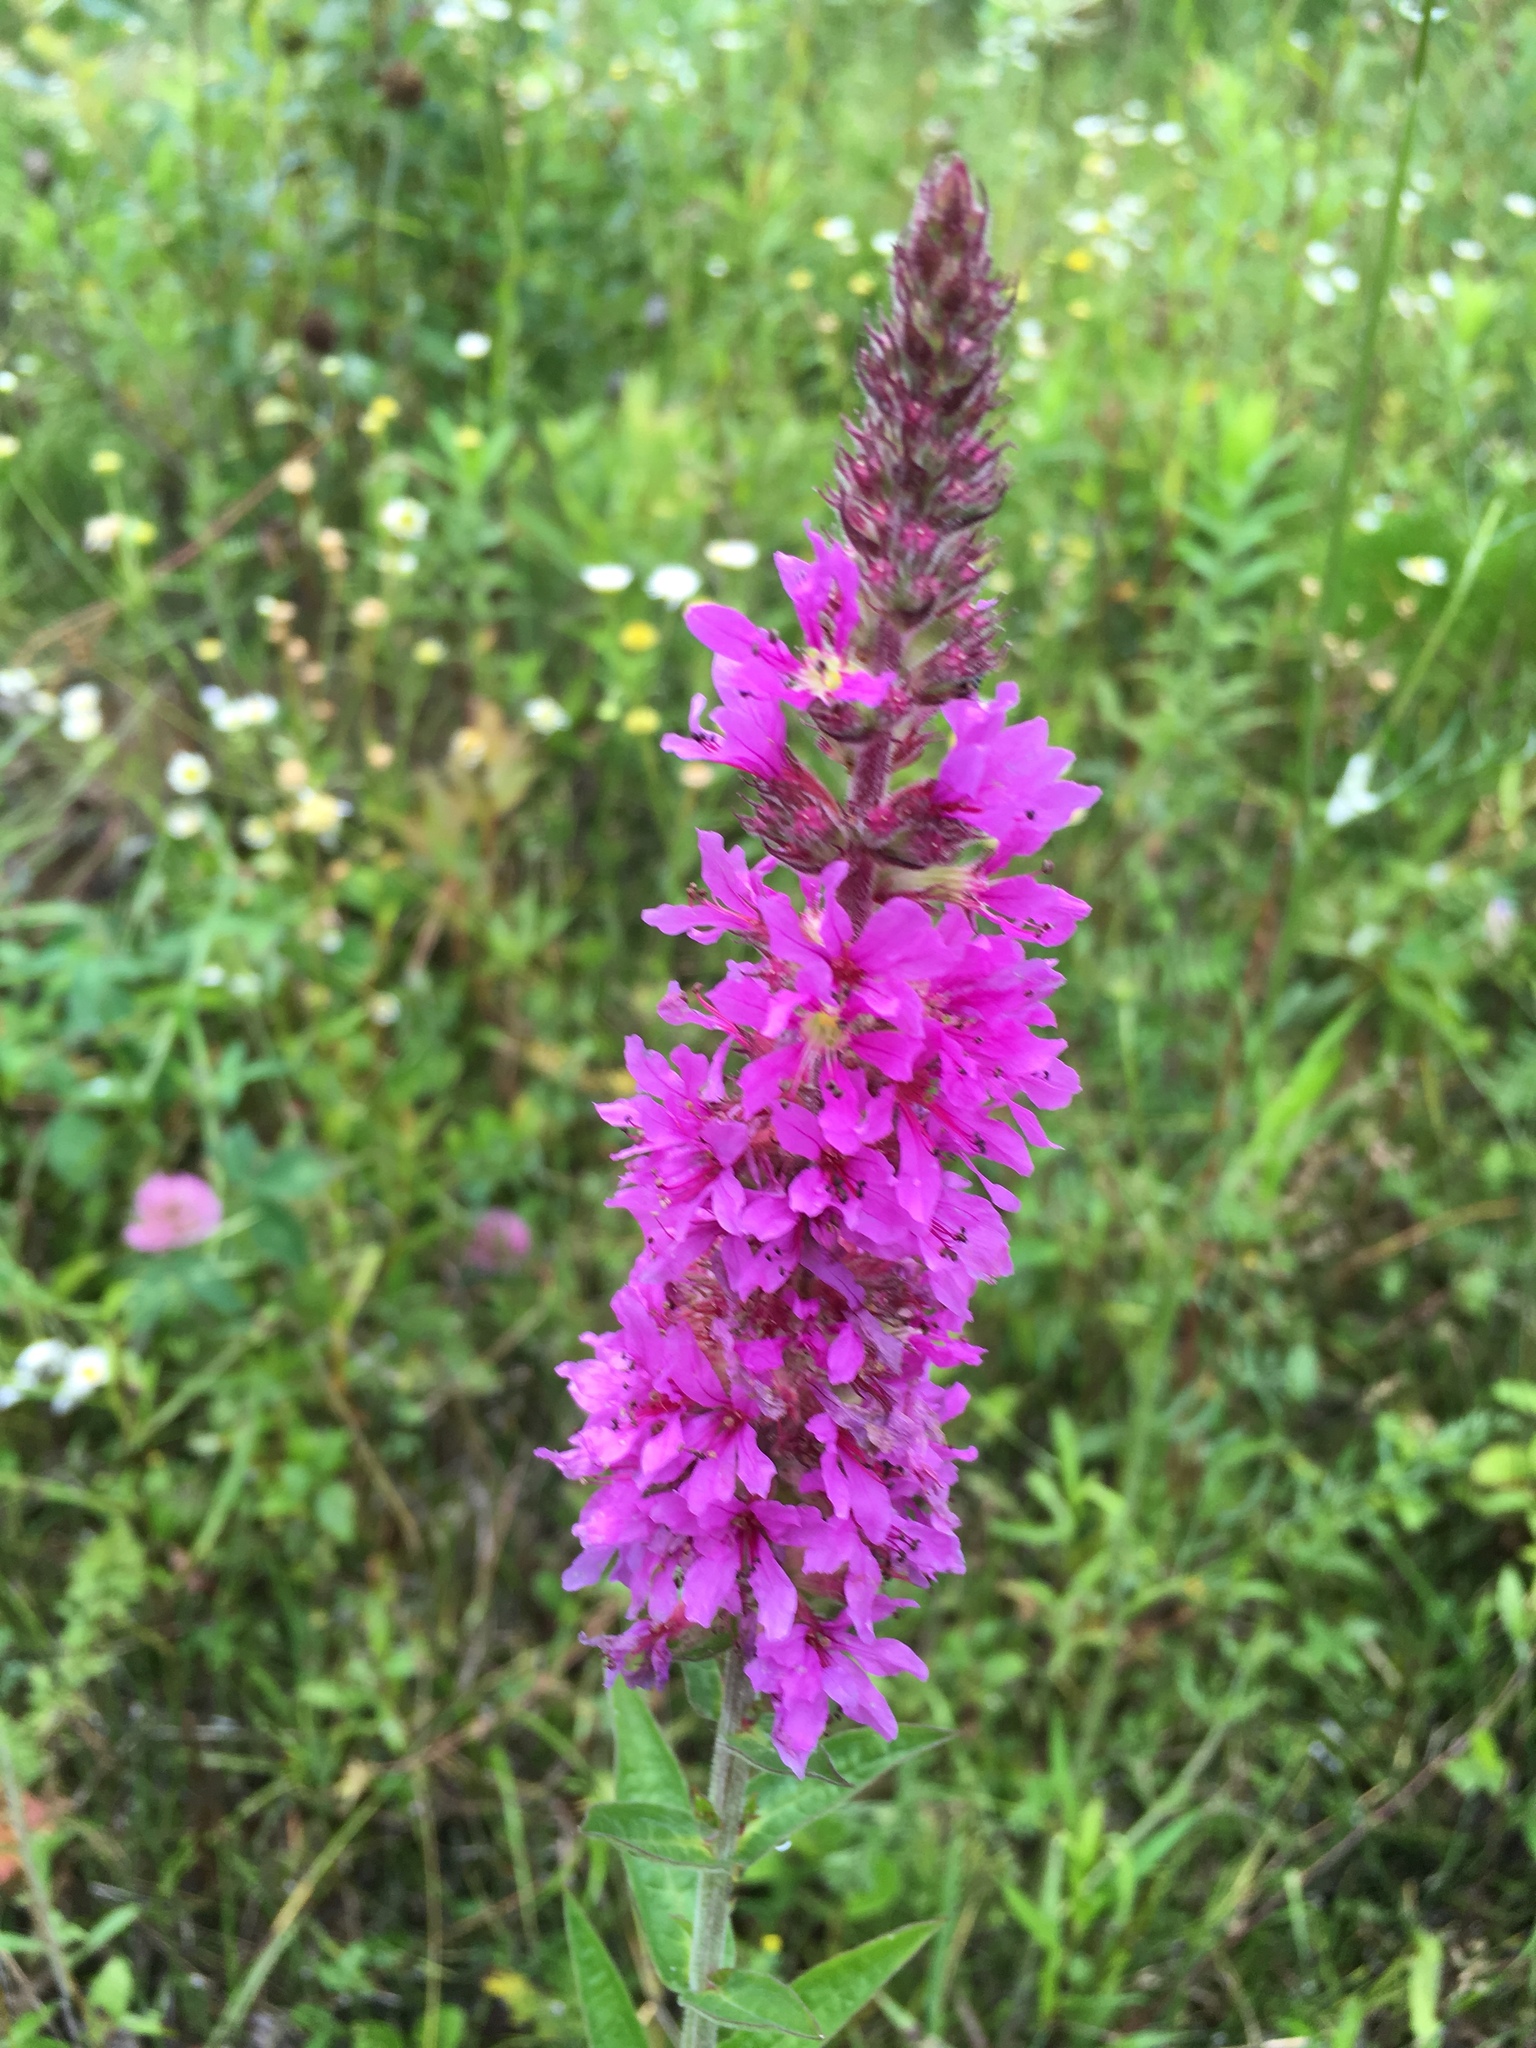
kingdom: Plantae
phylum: Tracheophyta
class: Magnoliopsida
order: Myrtales
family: Lythraceae
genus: Lythrum
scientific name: Lythrum salicaria
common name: Purple loosestrife
